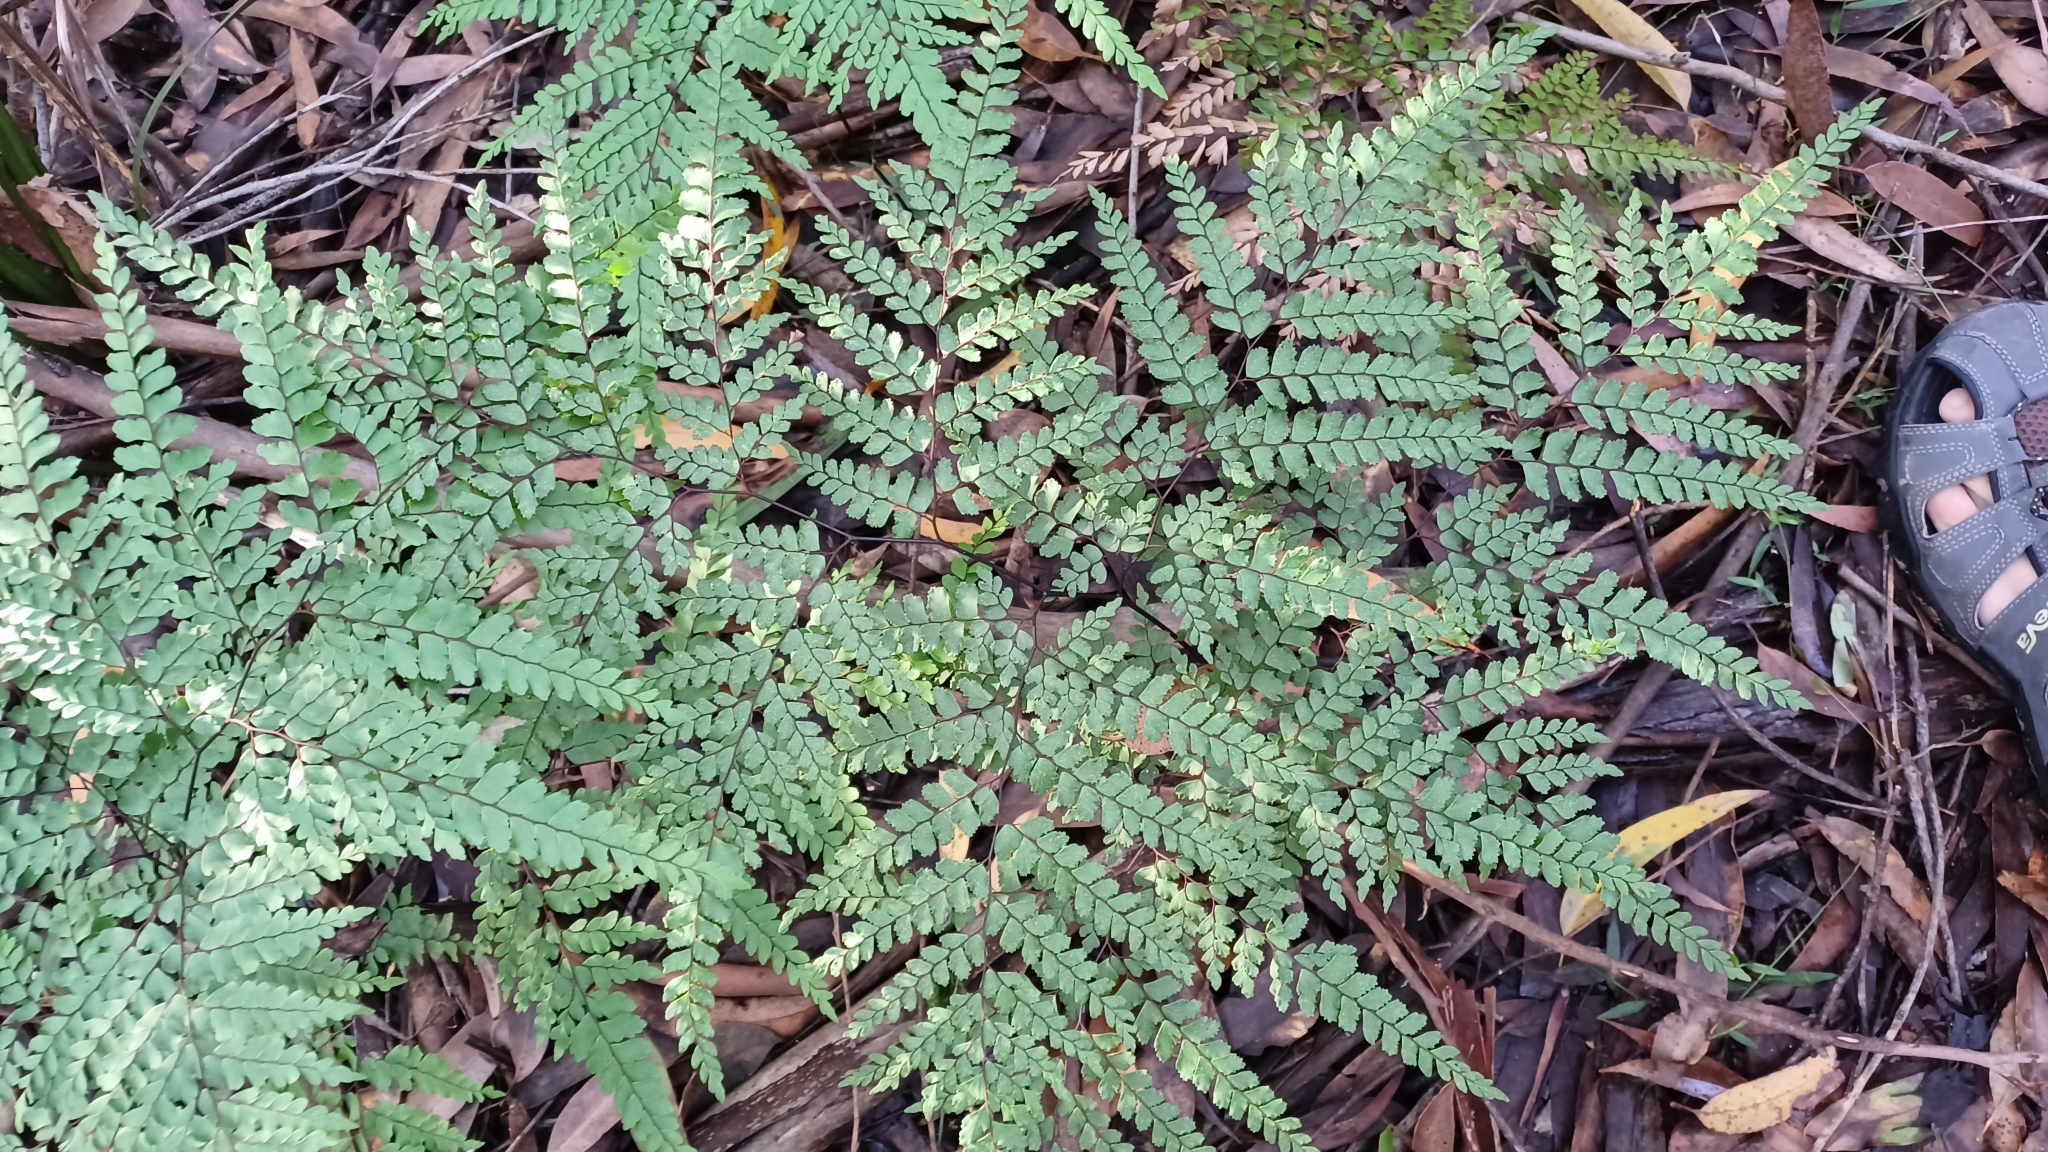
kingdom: Plantae
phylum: Tracheophyta
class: Polypodiopsida
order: Polypodiales
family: Pteridaceae
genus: Adiantum
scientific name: Adiantum formosum
